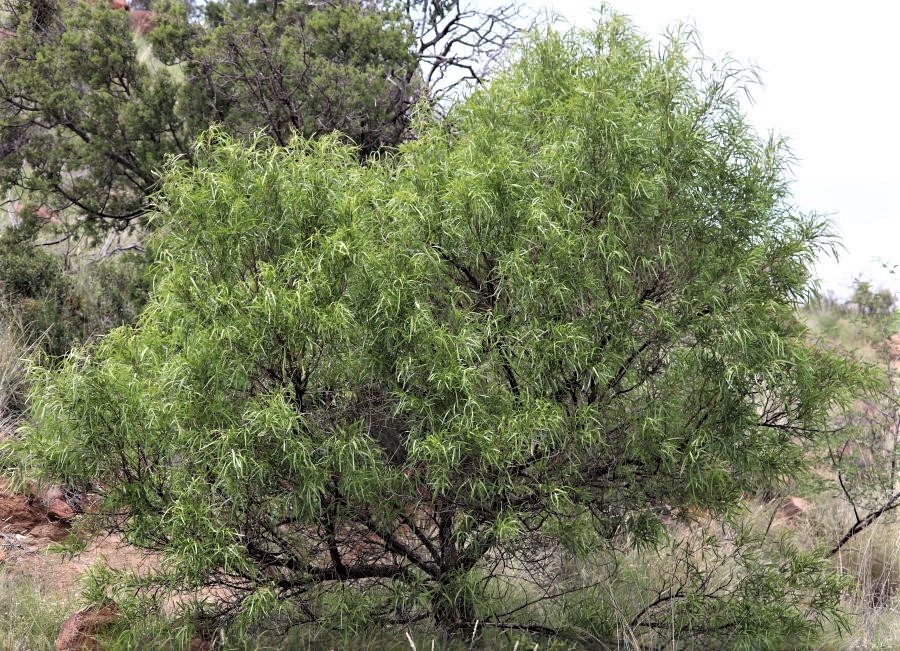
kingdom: Plantae
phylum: Tracheophyta
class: Magnoliopsida
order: Sapindales
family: Anacardiaceae
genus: Searsia
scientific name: Searsia lancea
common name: Cashew
